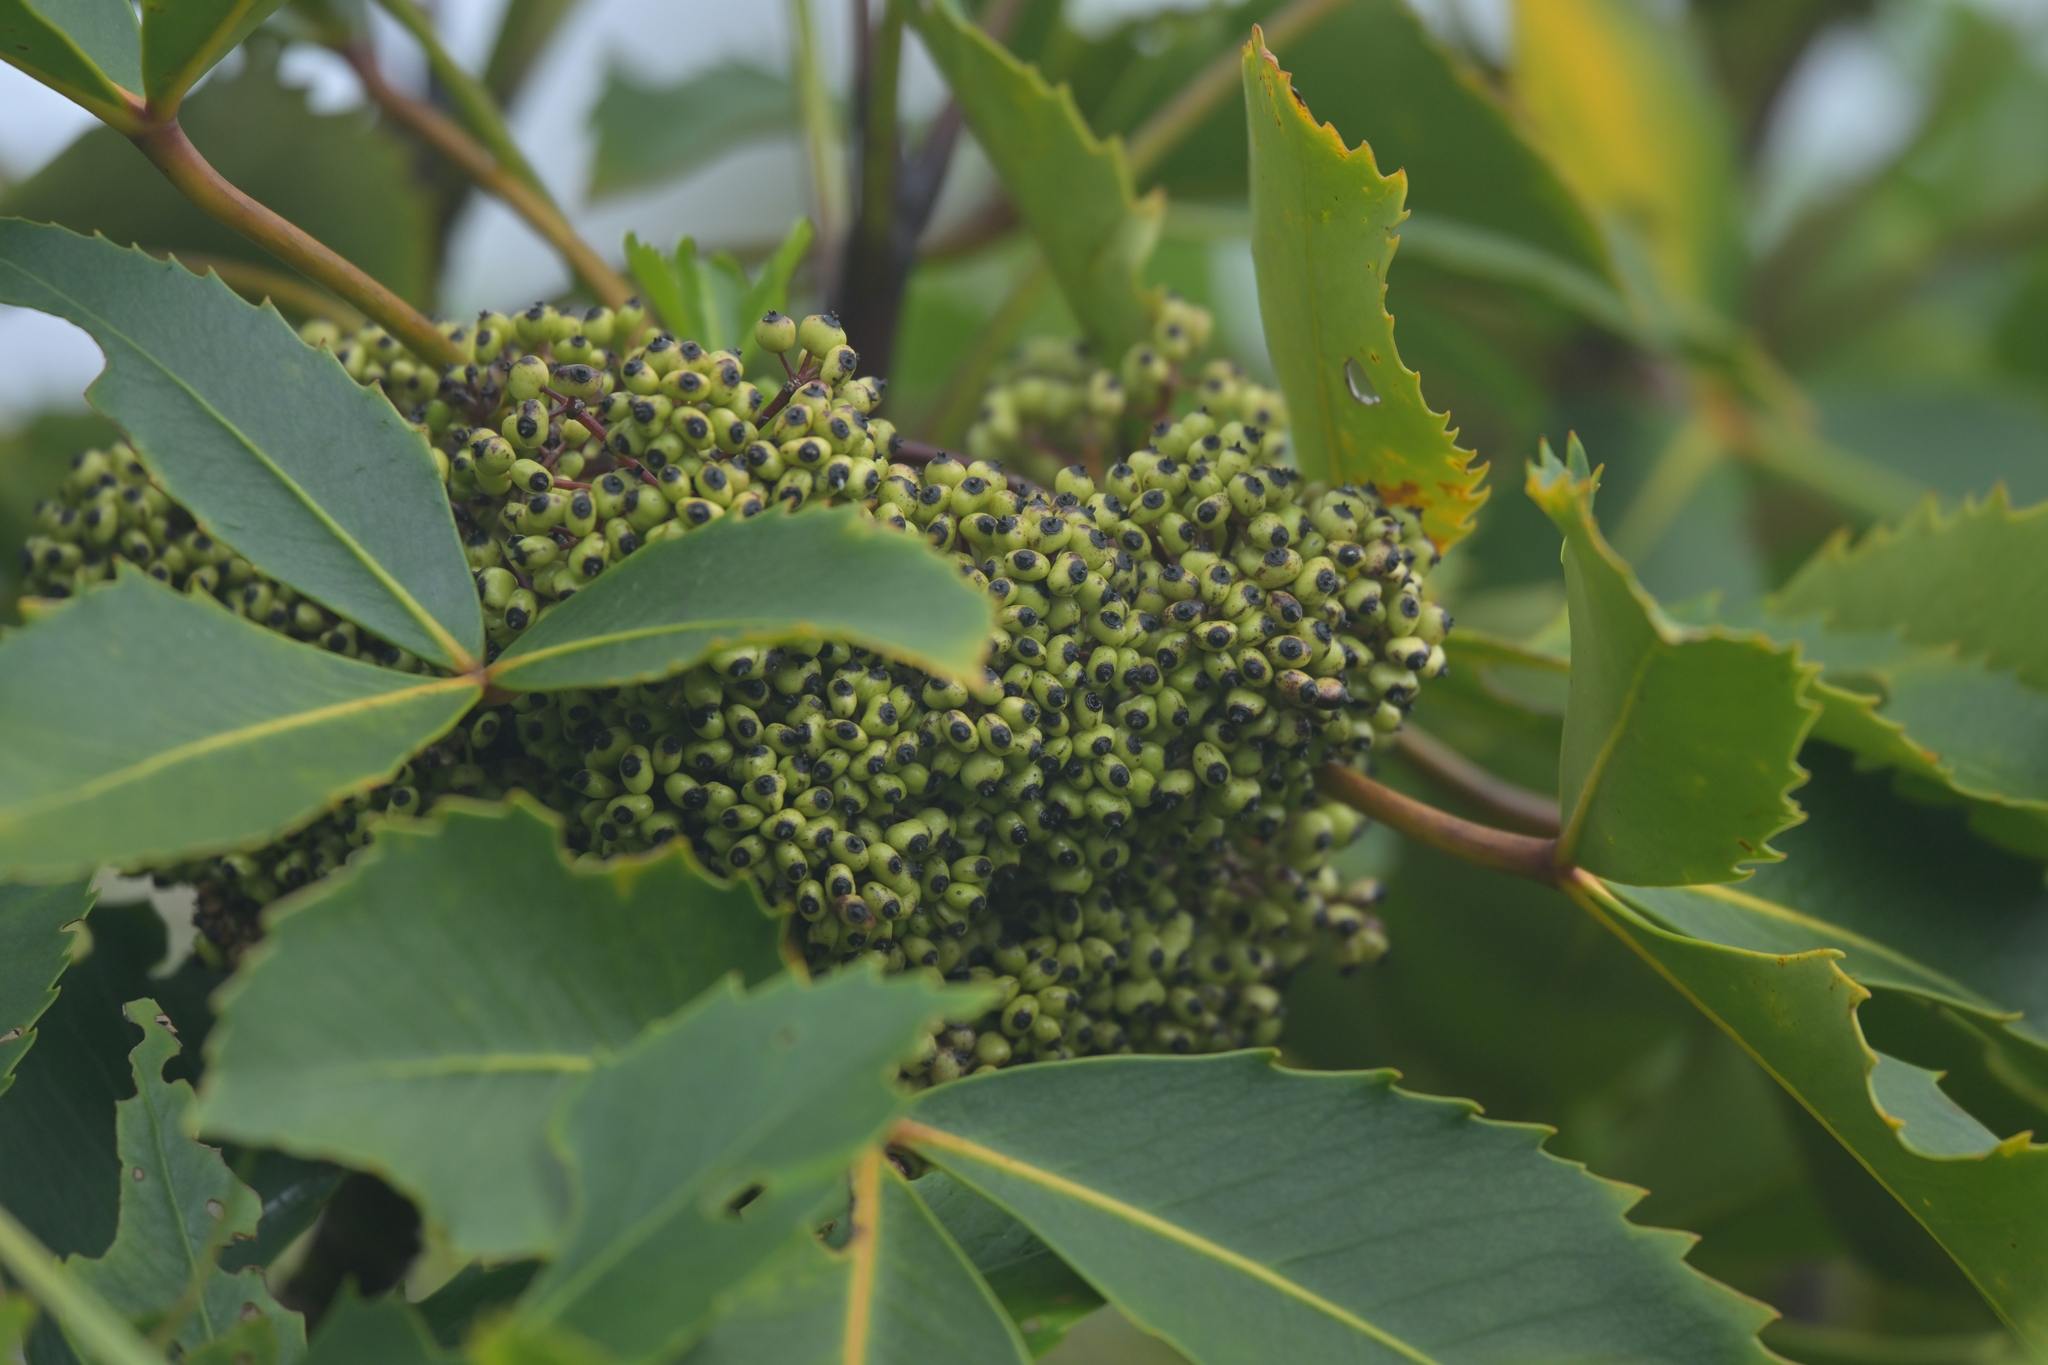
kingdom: Plantae
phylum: Tracheophyta
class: Magnoliopsida
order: Apiales
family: Araliaceae
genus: Neopanax
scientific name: Neopanax colensoi
